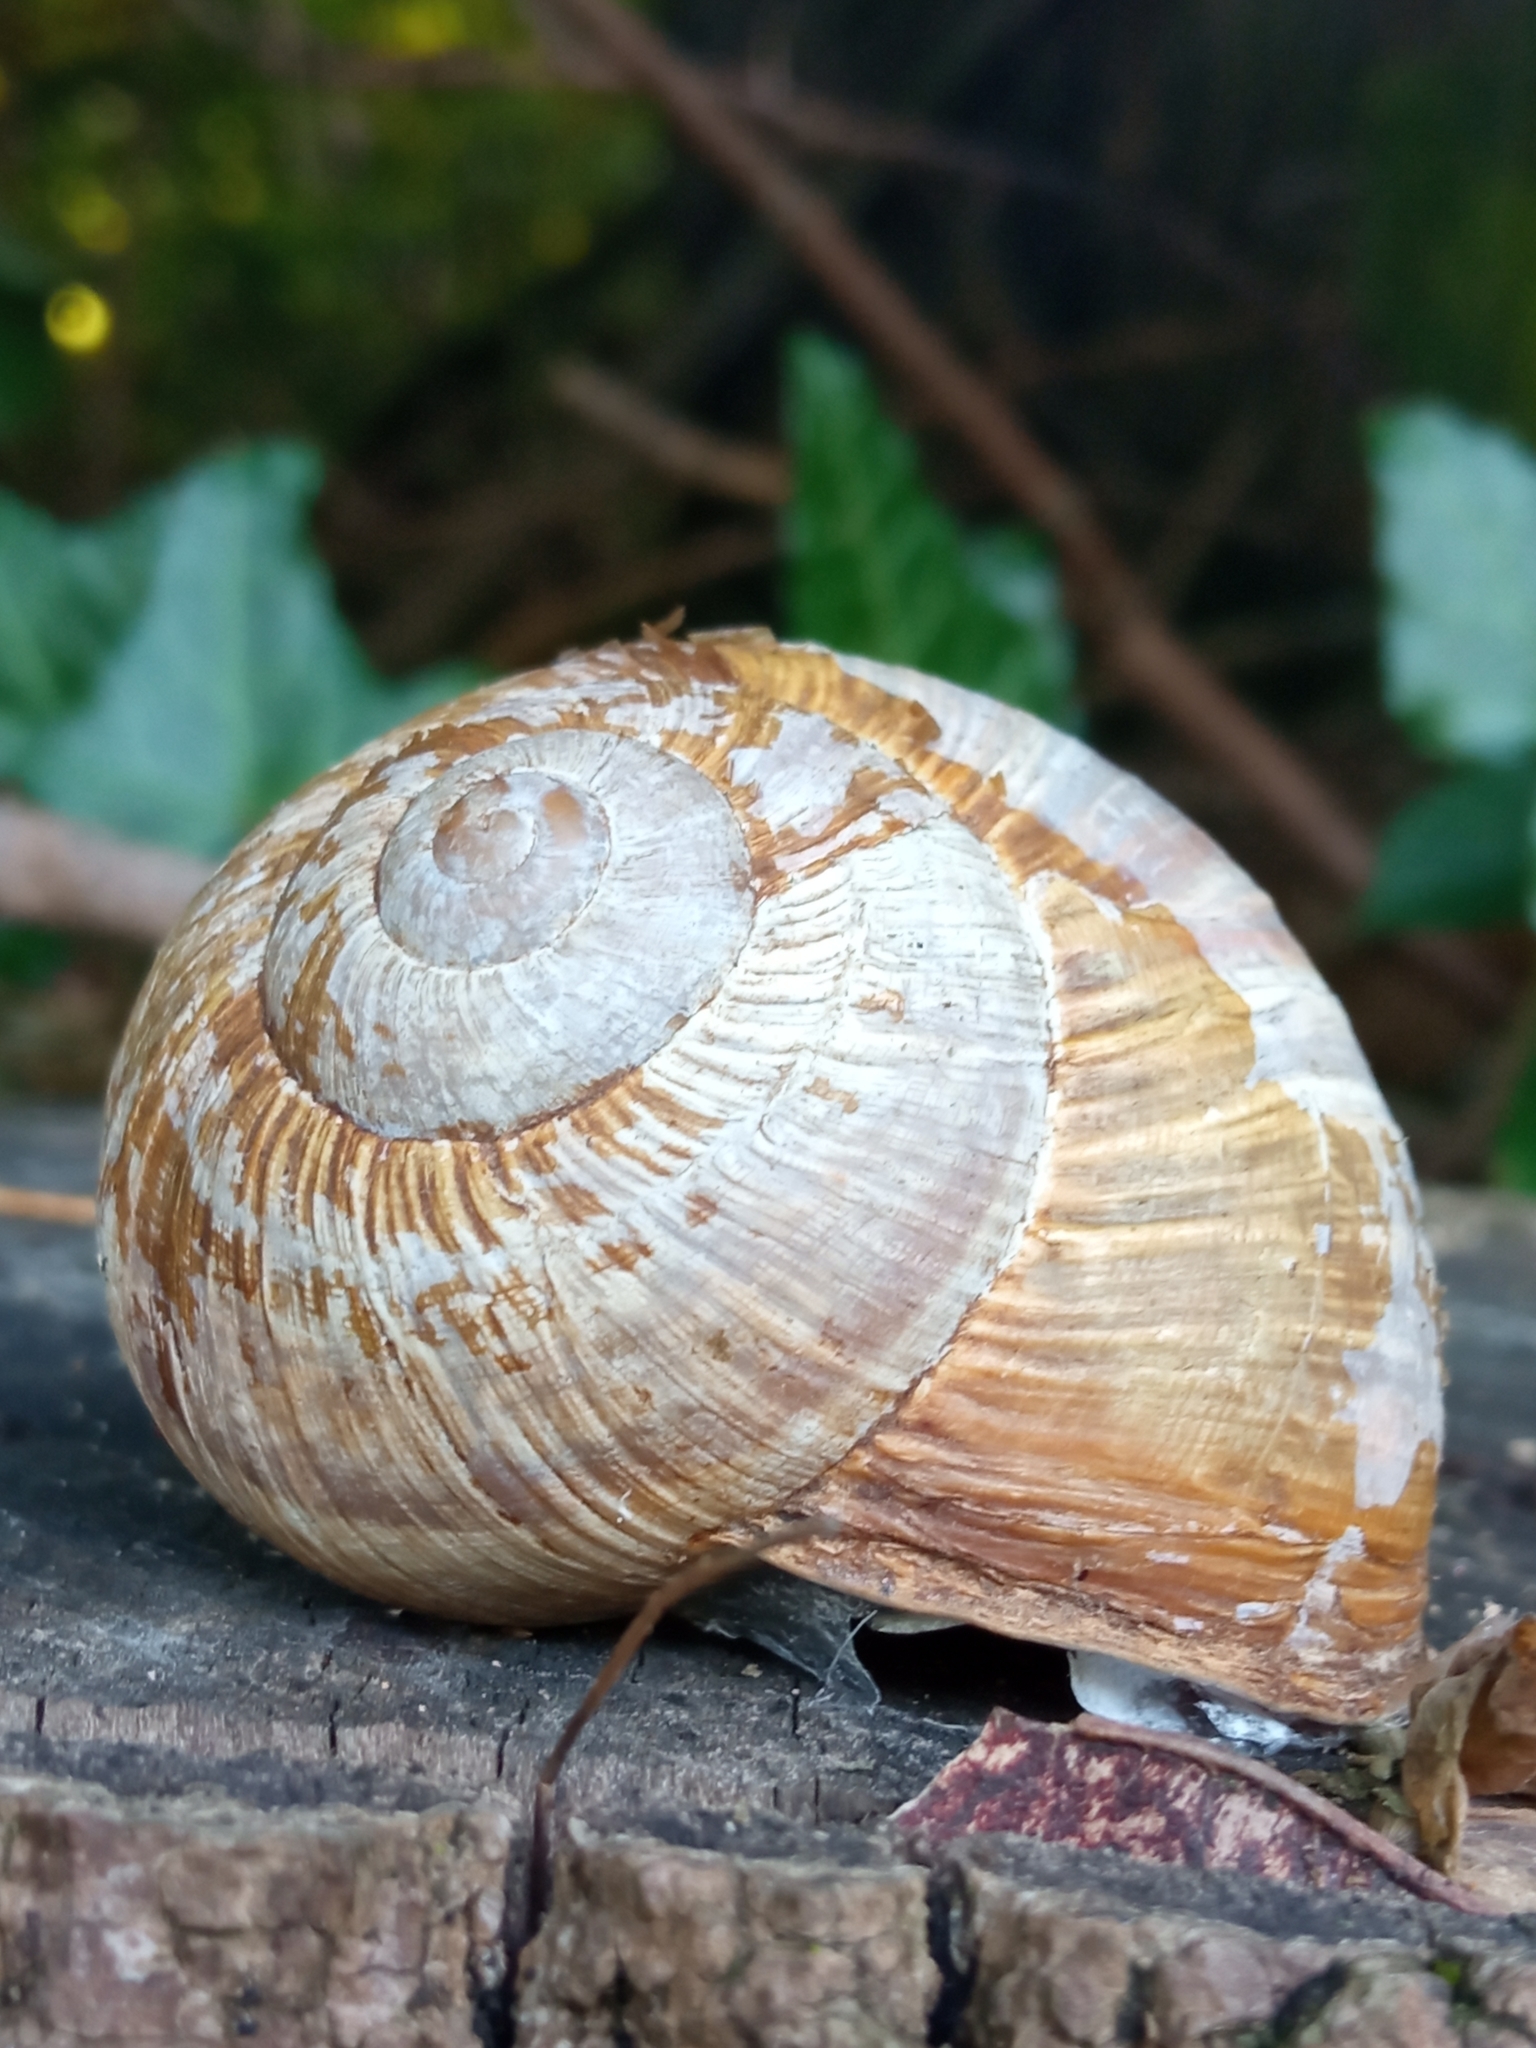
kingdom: Animalia
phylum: Mollusca
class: Gastropoda
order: Stylommatophora
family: Helicidae
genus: Helix
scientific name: Helix pomatia
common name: Roman snail
